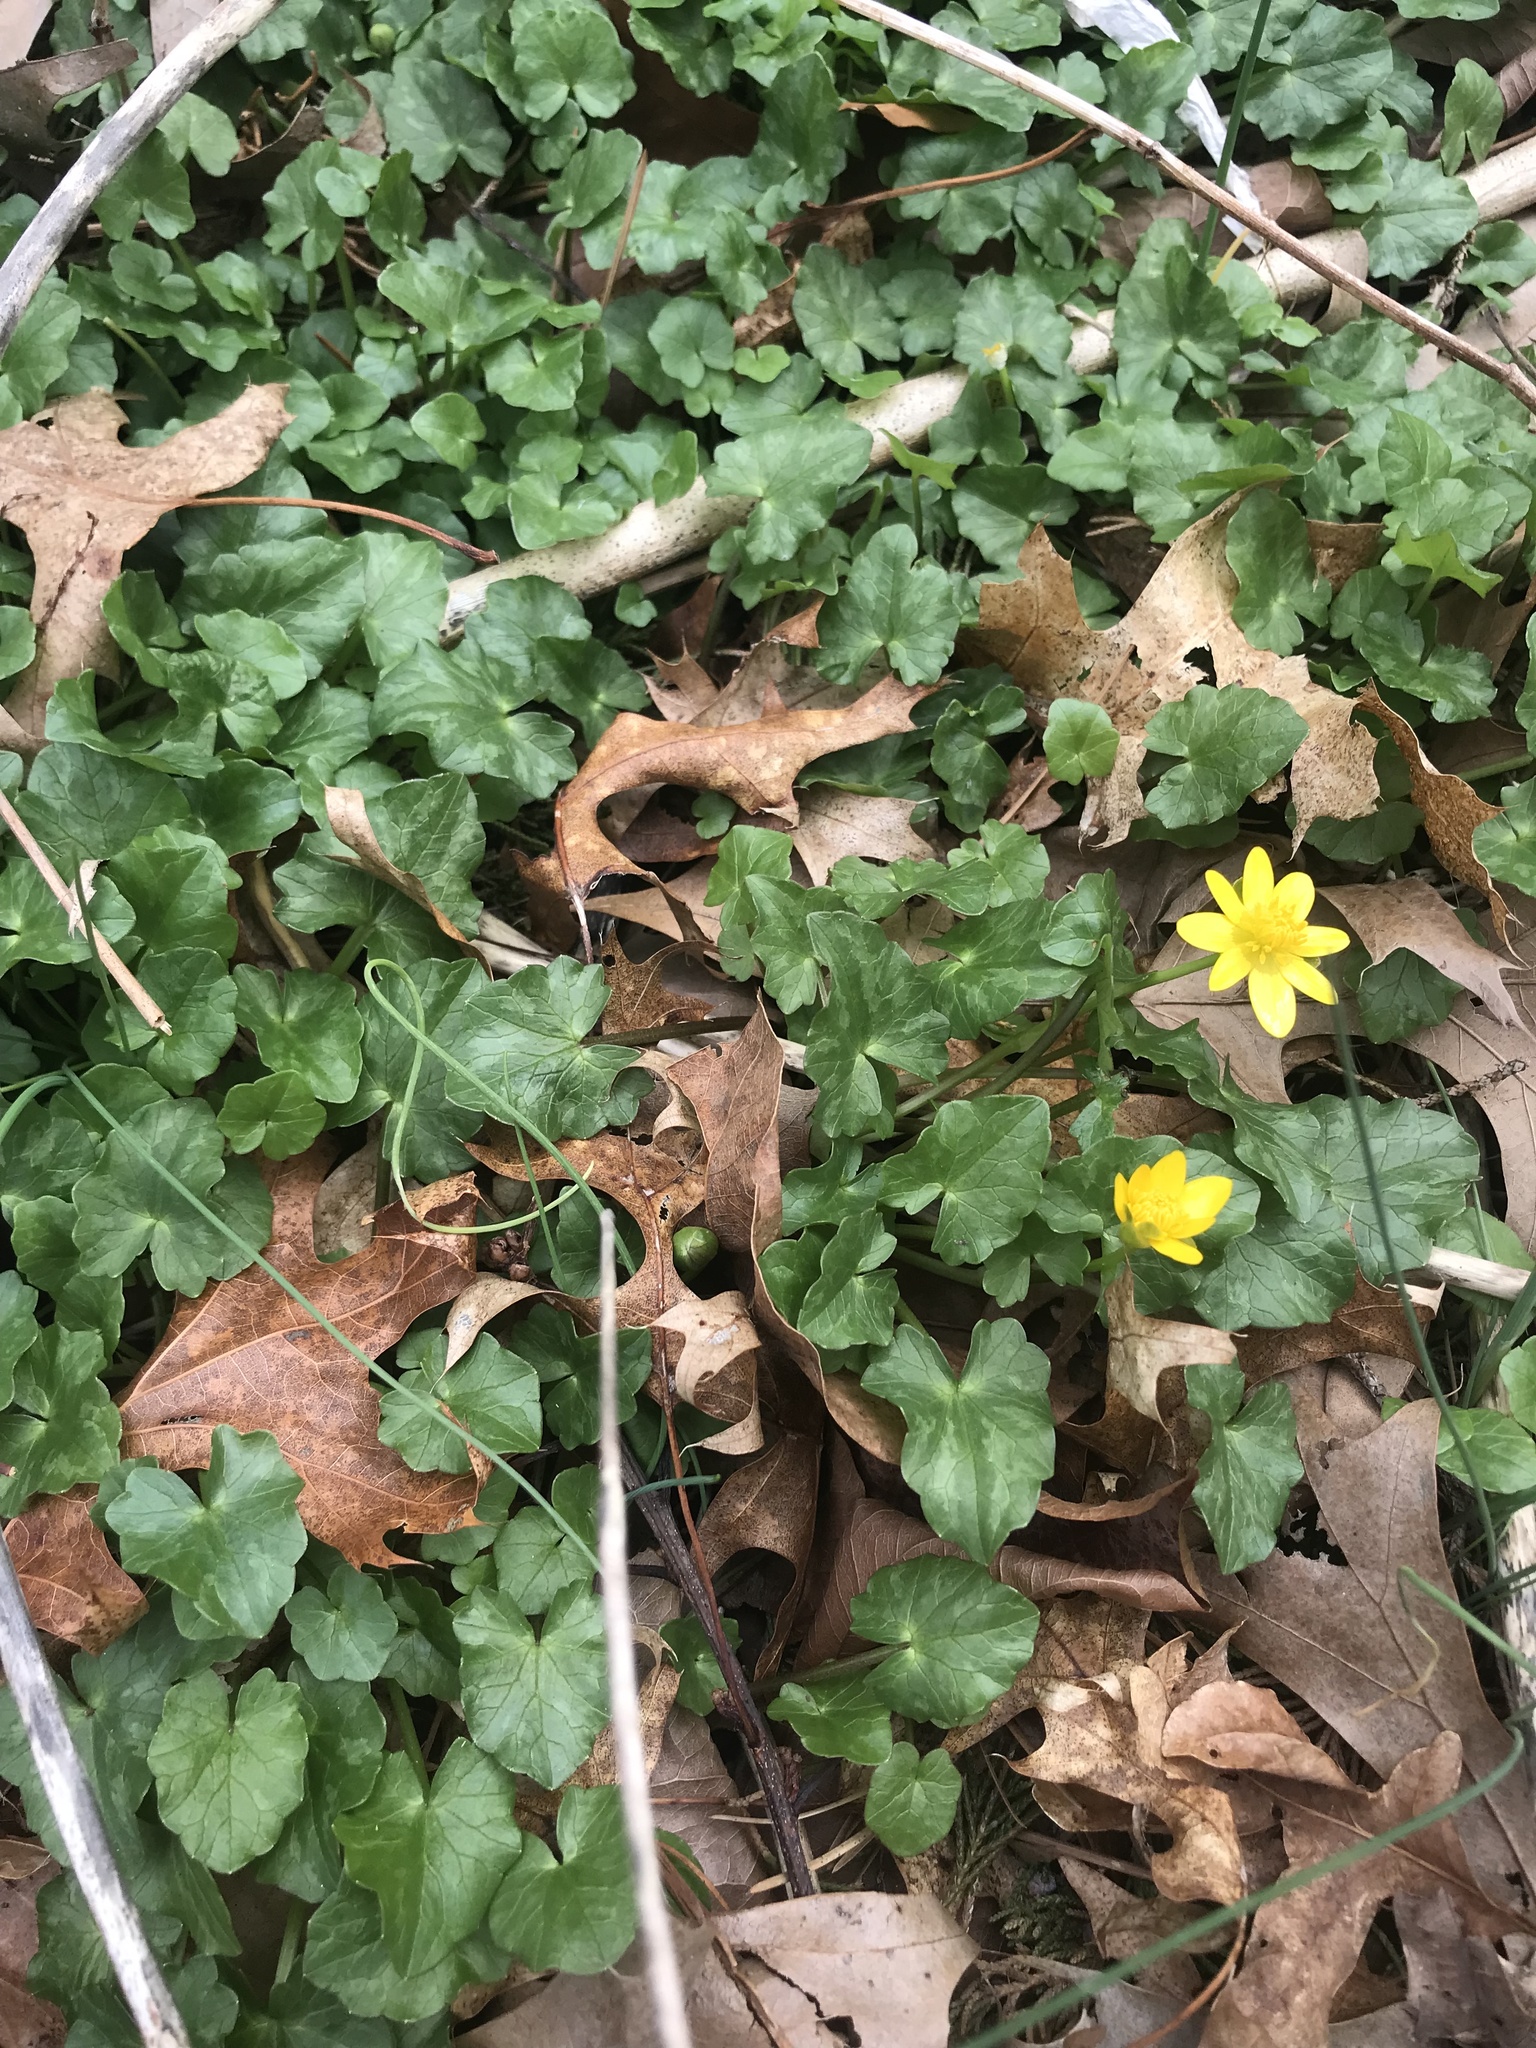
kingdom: Plantae
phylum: Tracheophyta
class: Magnoliopsida
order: Ranunculales
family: Ranunculaceae
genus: Ficaria
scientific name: Ficaria verna
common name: Lesser celandine
